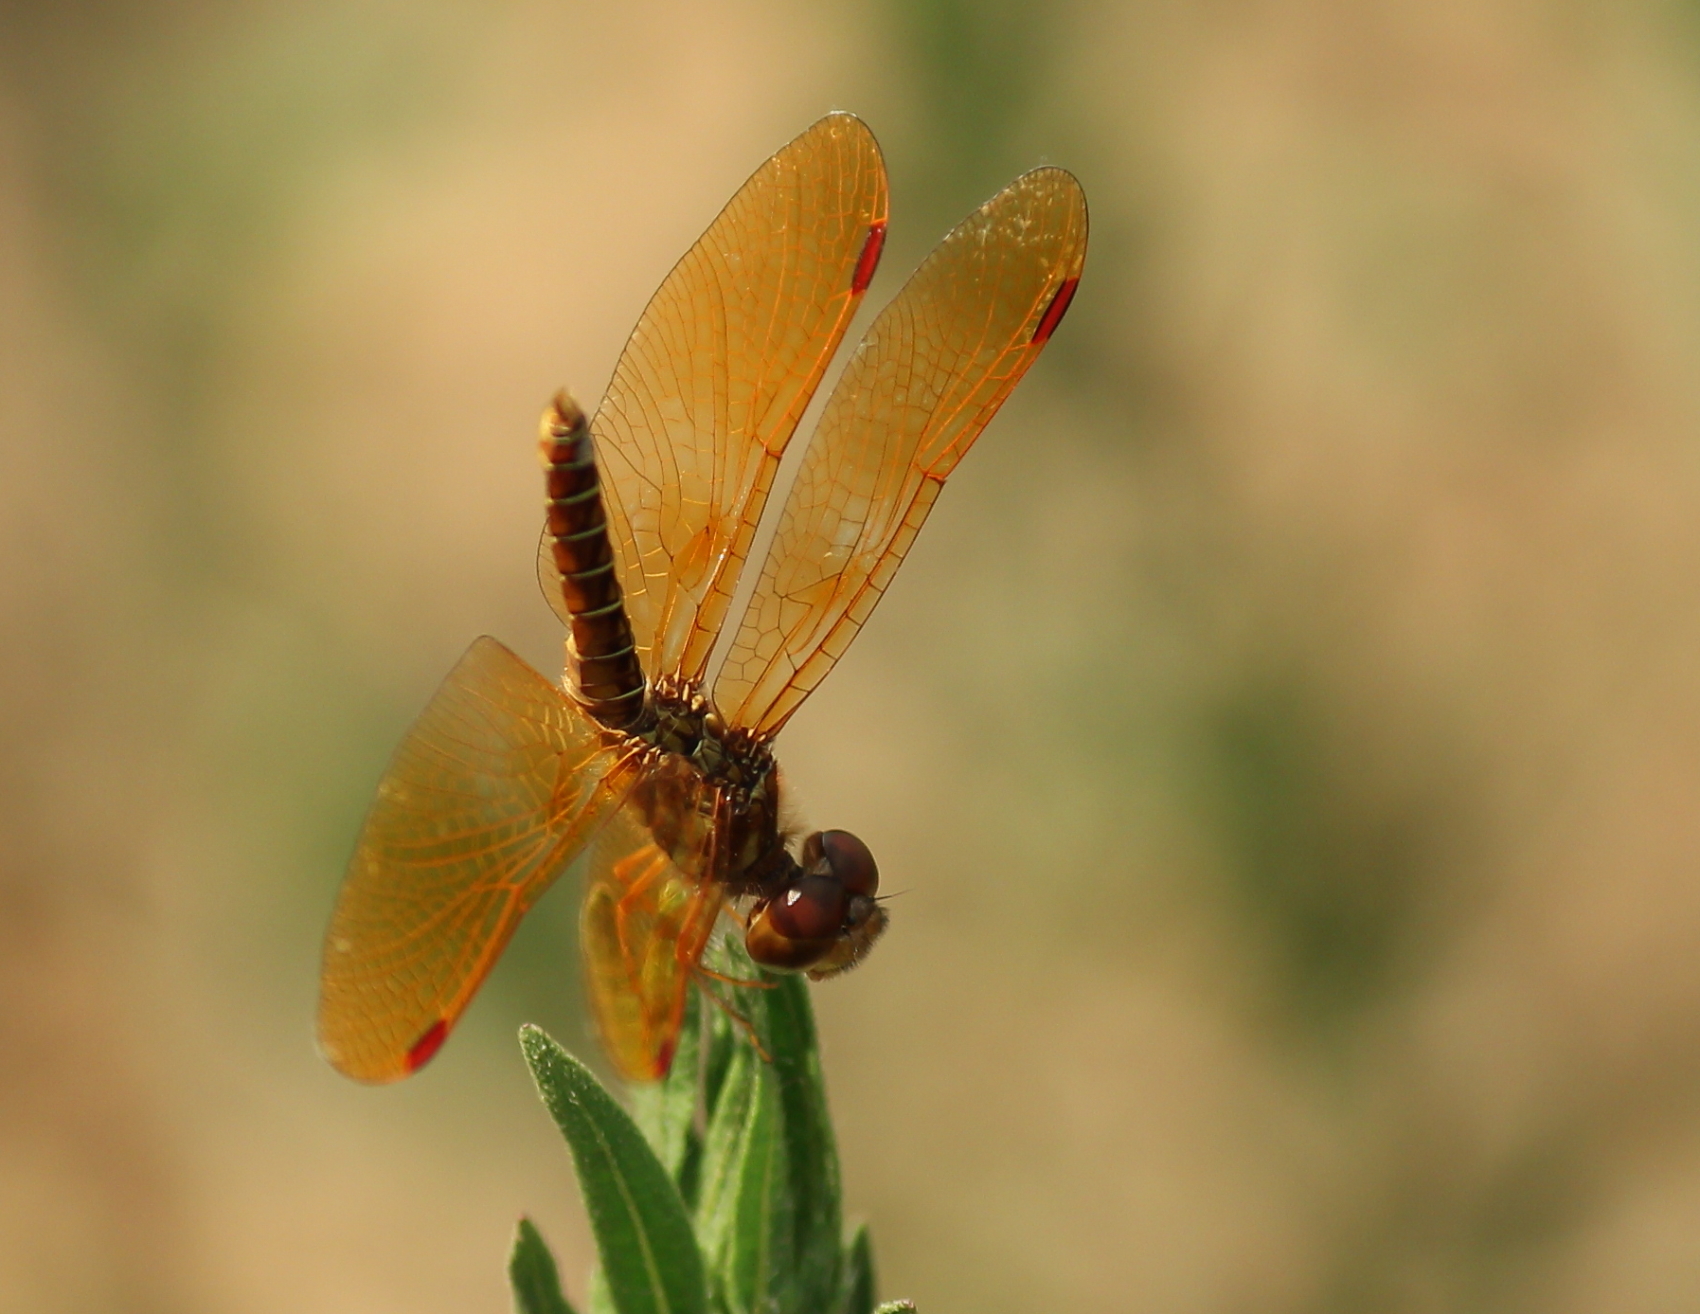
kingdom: Animalia
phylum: Arthropoda
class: Insecta
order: Odonata
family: Libellulidae
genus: Perithemis
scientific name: Perithemis tenera
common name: Eastern amberwing
